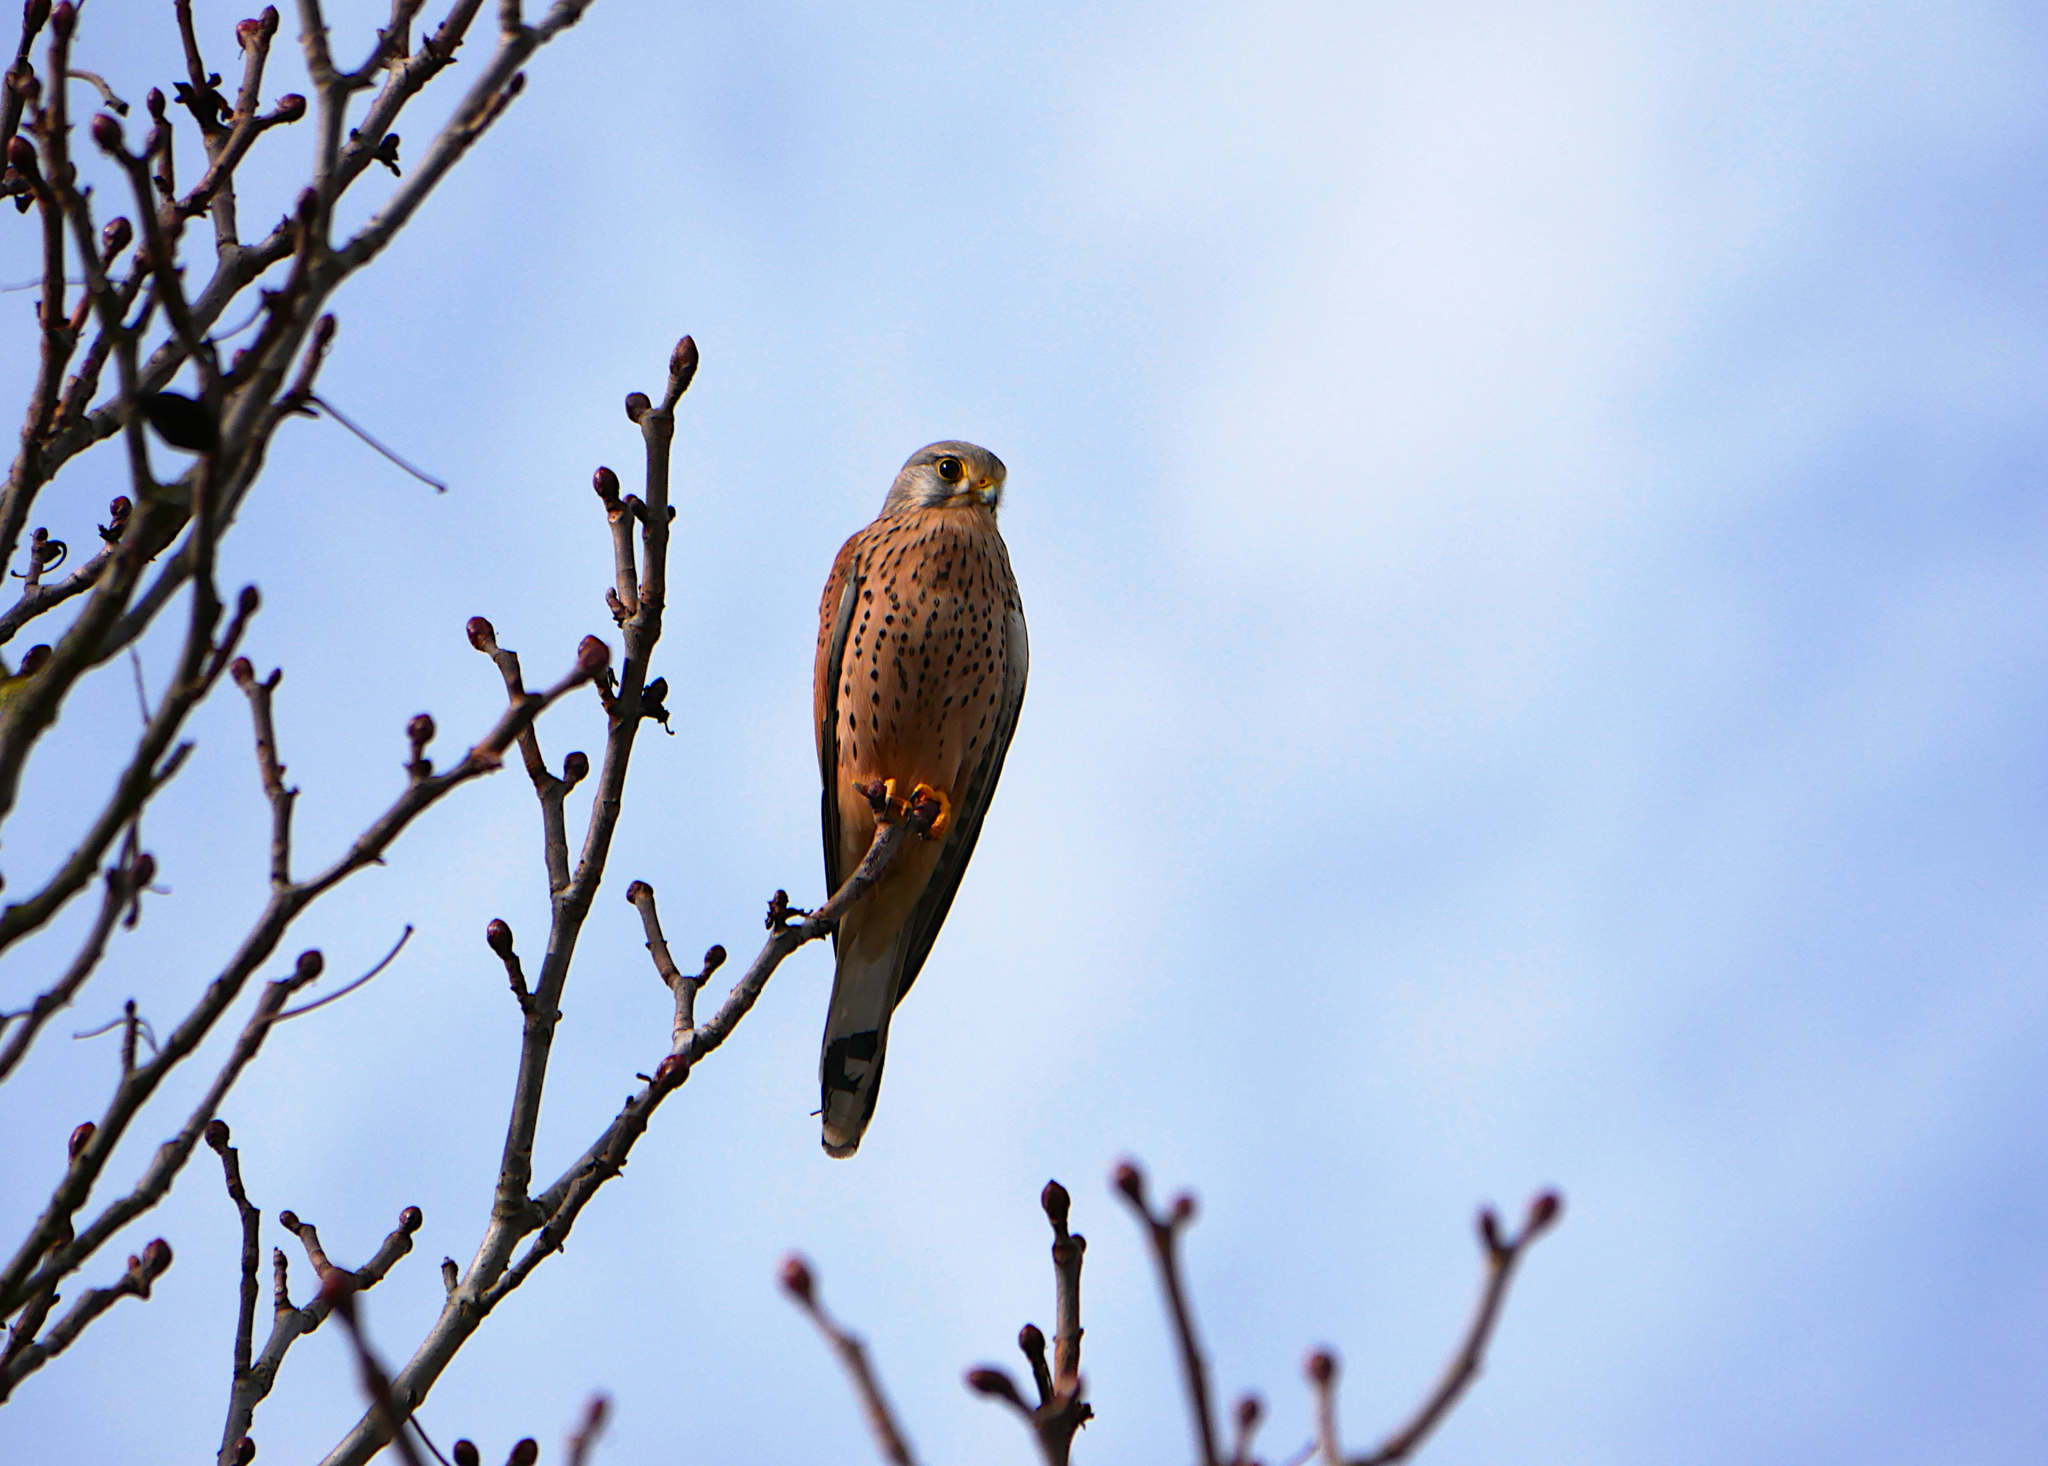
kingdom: Animalia
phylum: Chordata
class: Aves
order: Falconiformes
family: Falconidae
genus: Falco
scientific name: Falco tinnunculus
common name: Common kestrel
